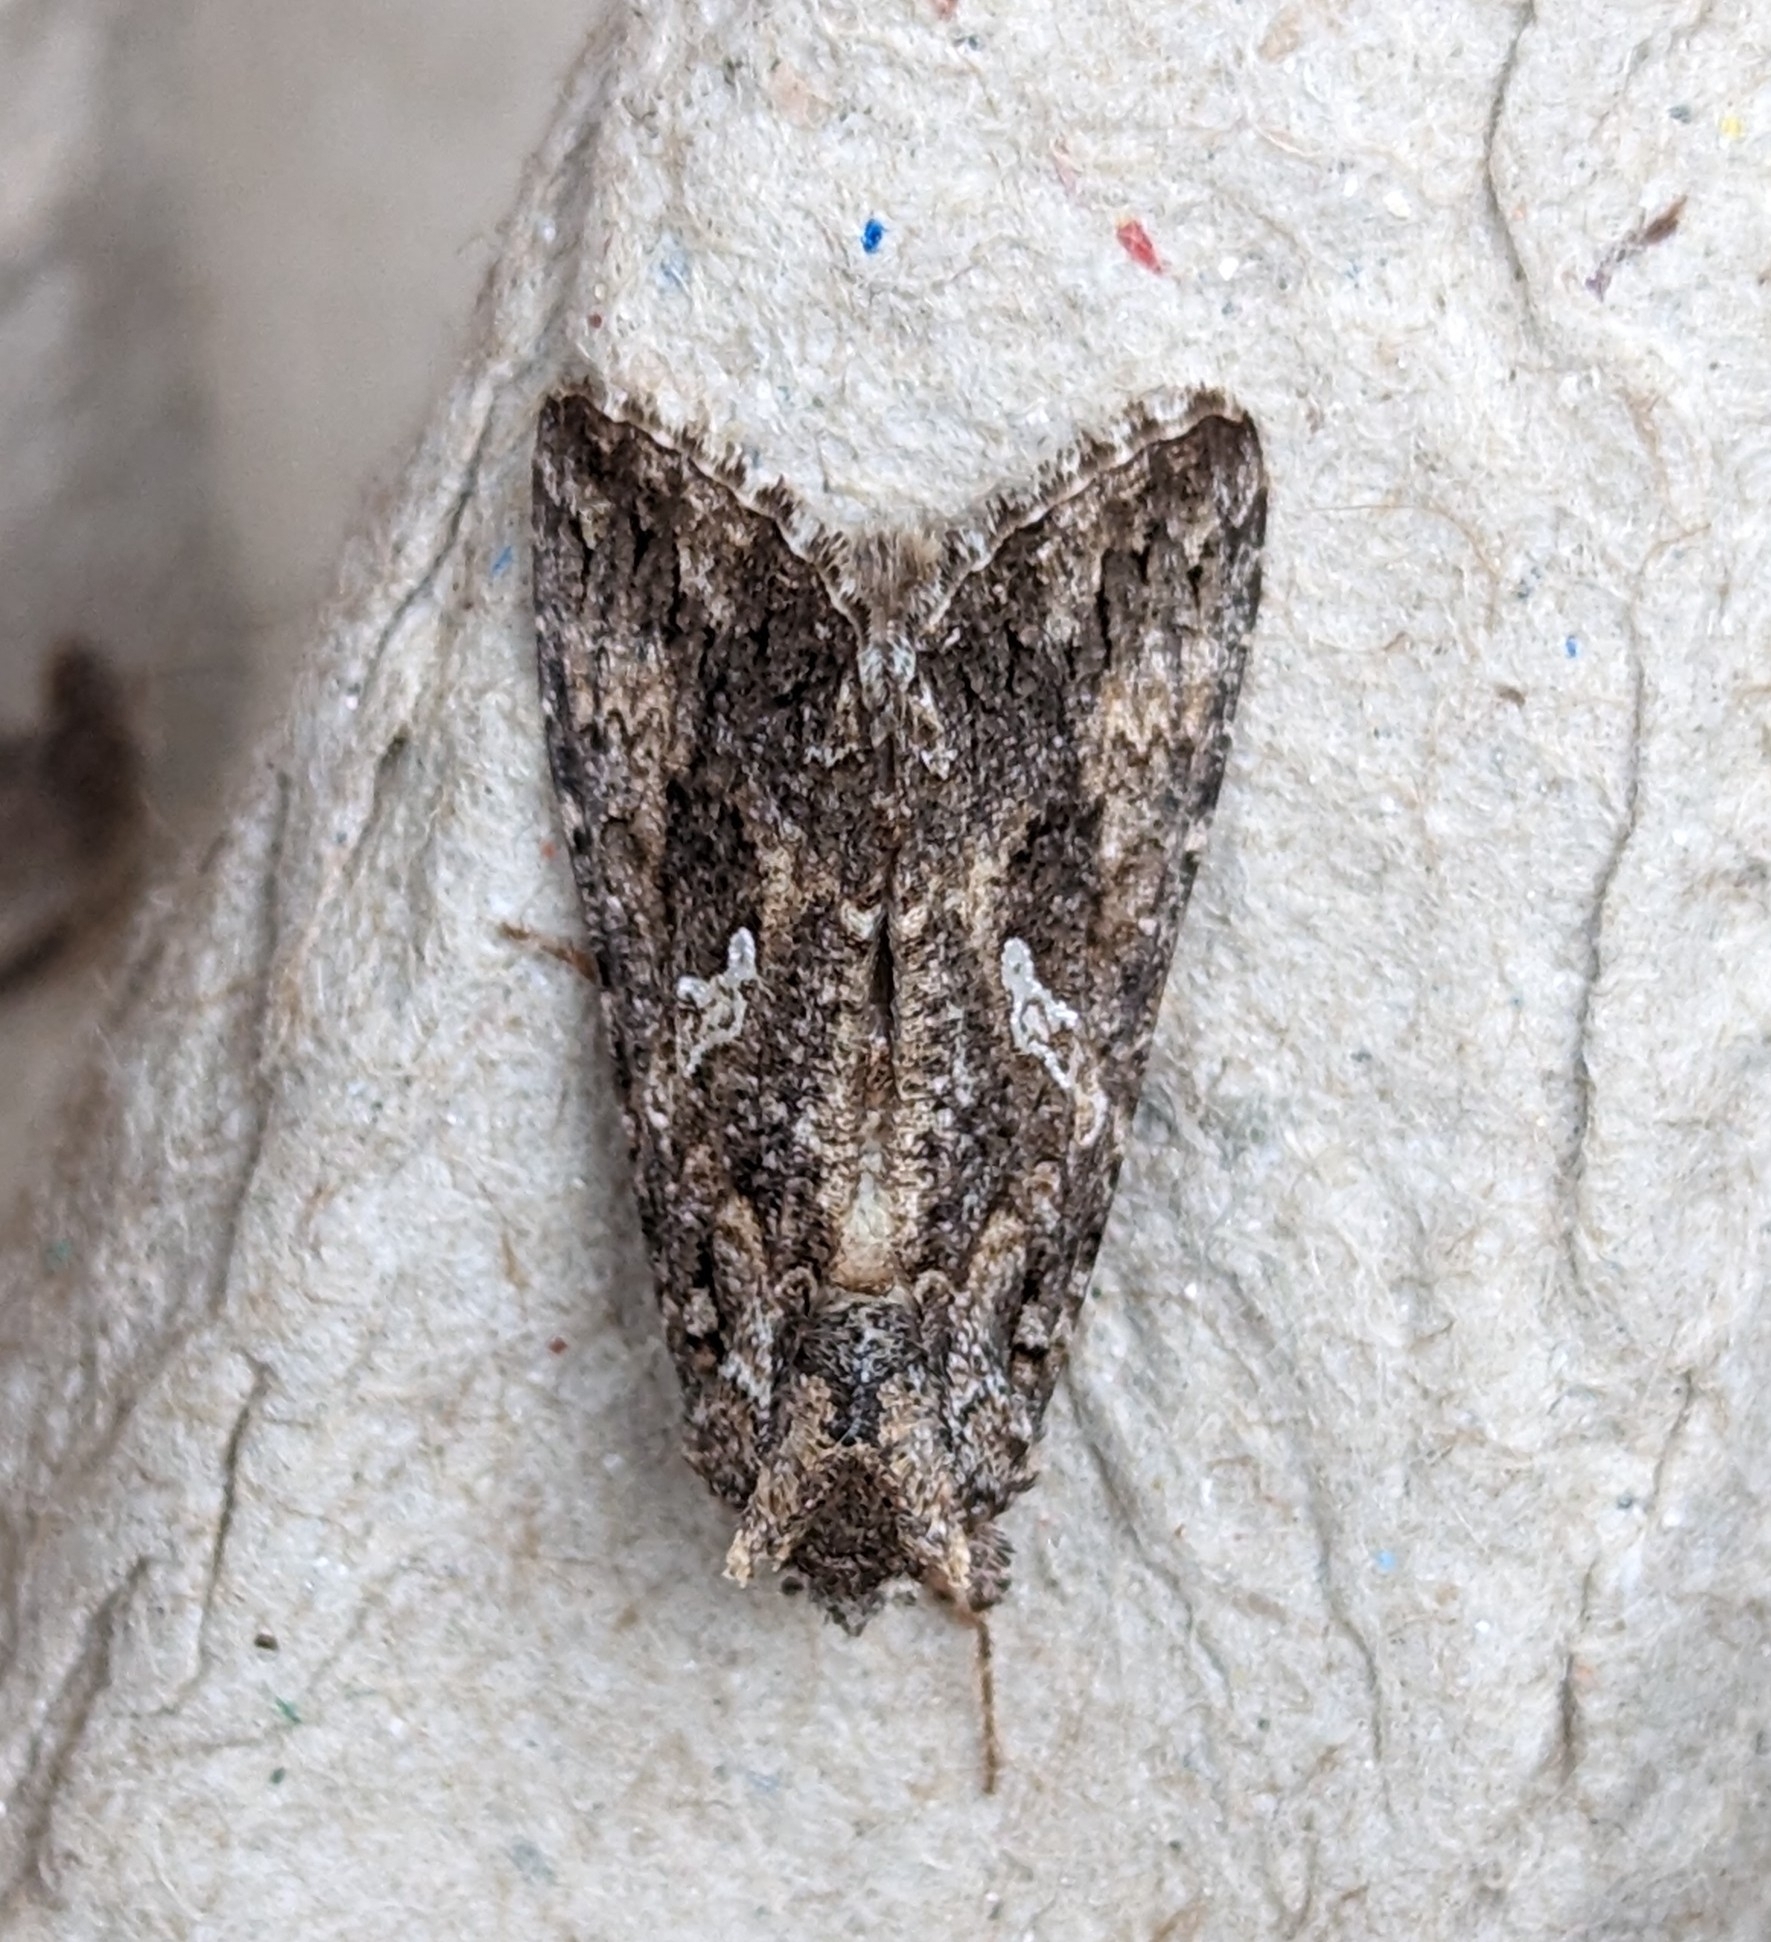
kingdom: Animalia
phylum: Arthropoda
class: Insecta
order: Lepidoptera
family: Noctuidae
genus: Trichoplusia
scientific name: Trichoplusia ni
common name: Ni moth
